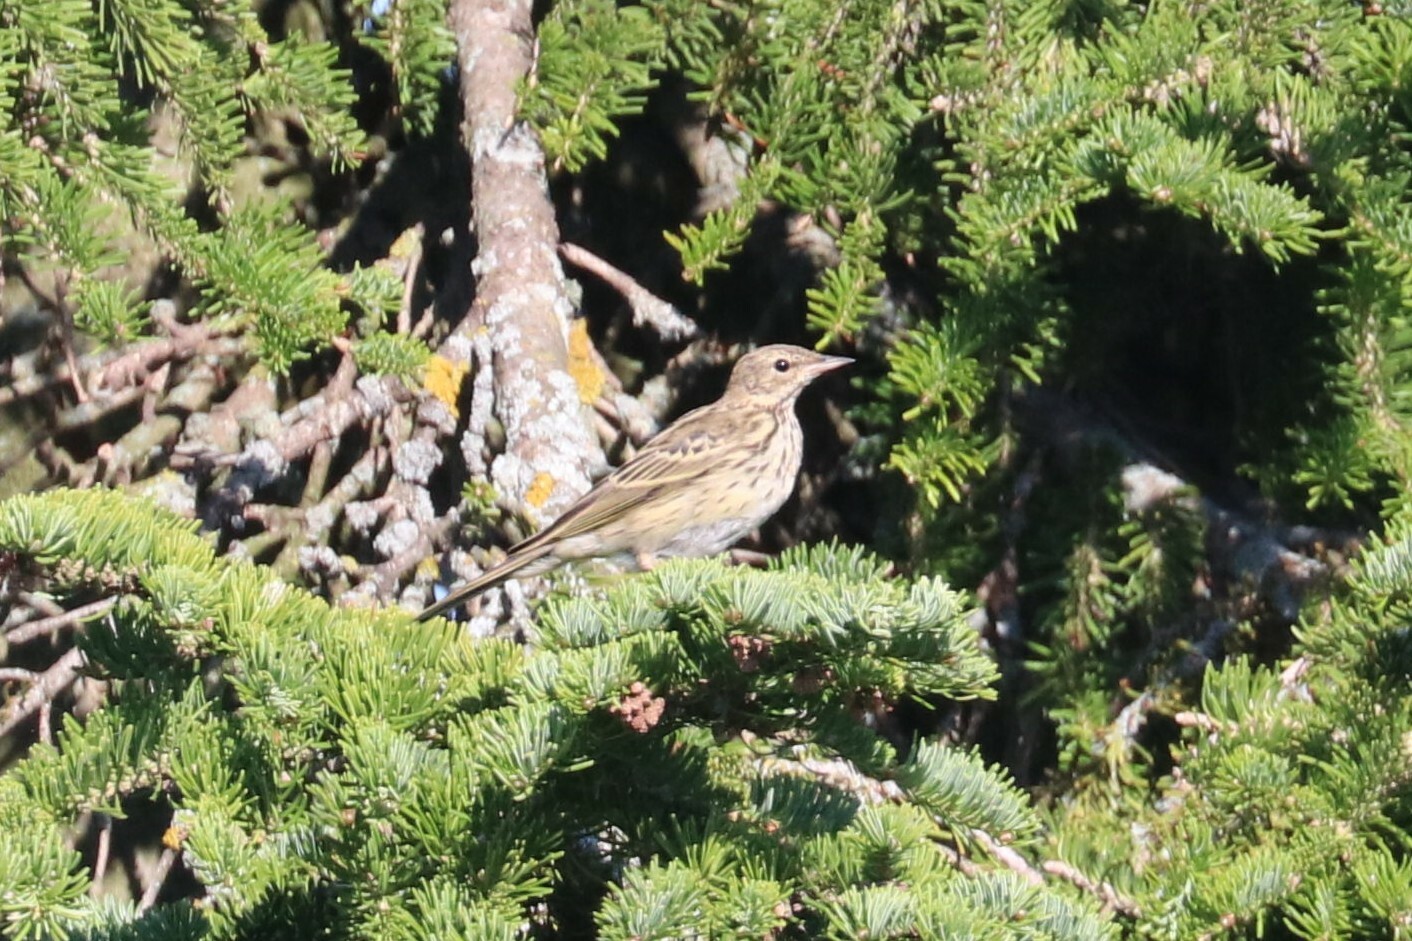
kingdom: Animalia
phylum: Chordata
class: Aves
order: Passeriformes
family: Motacillidae
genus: Anthus
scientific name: Anthus trivialis
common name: Tree pipit
